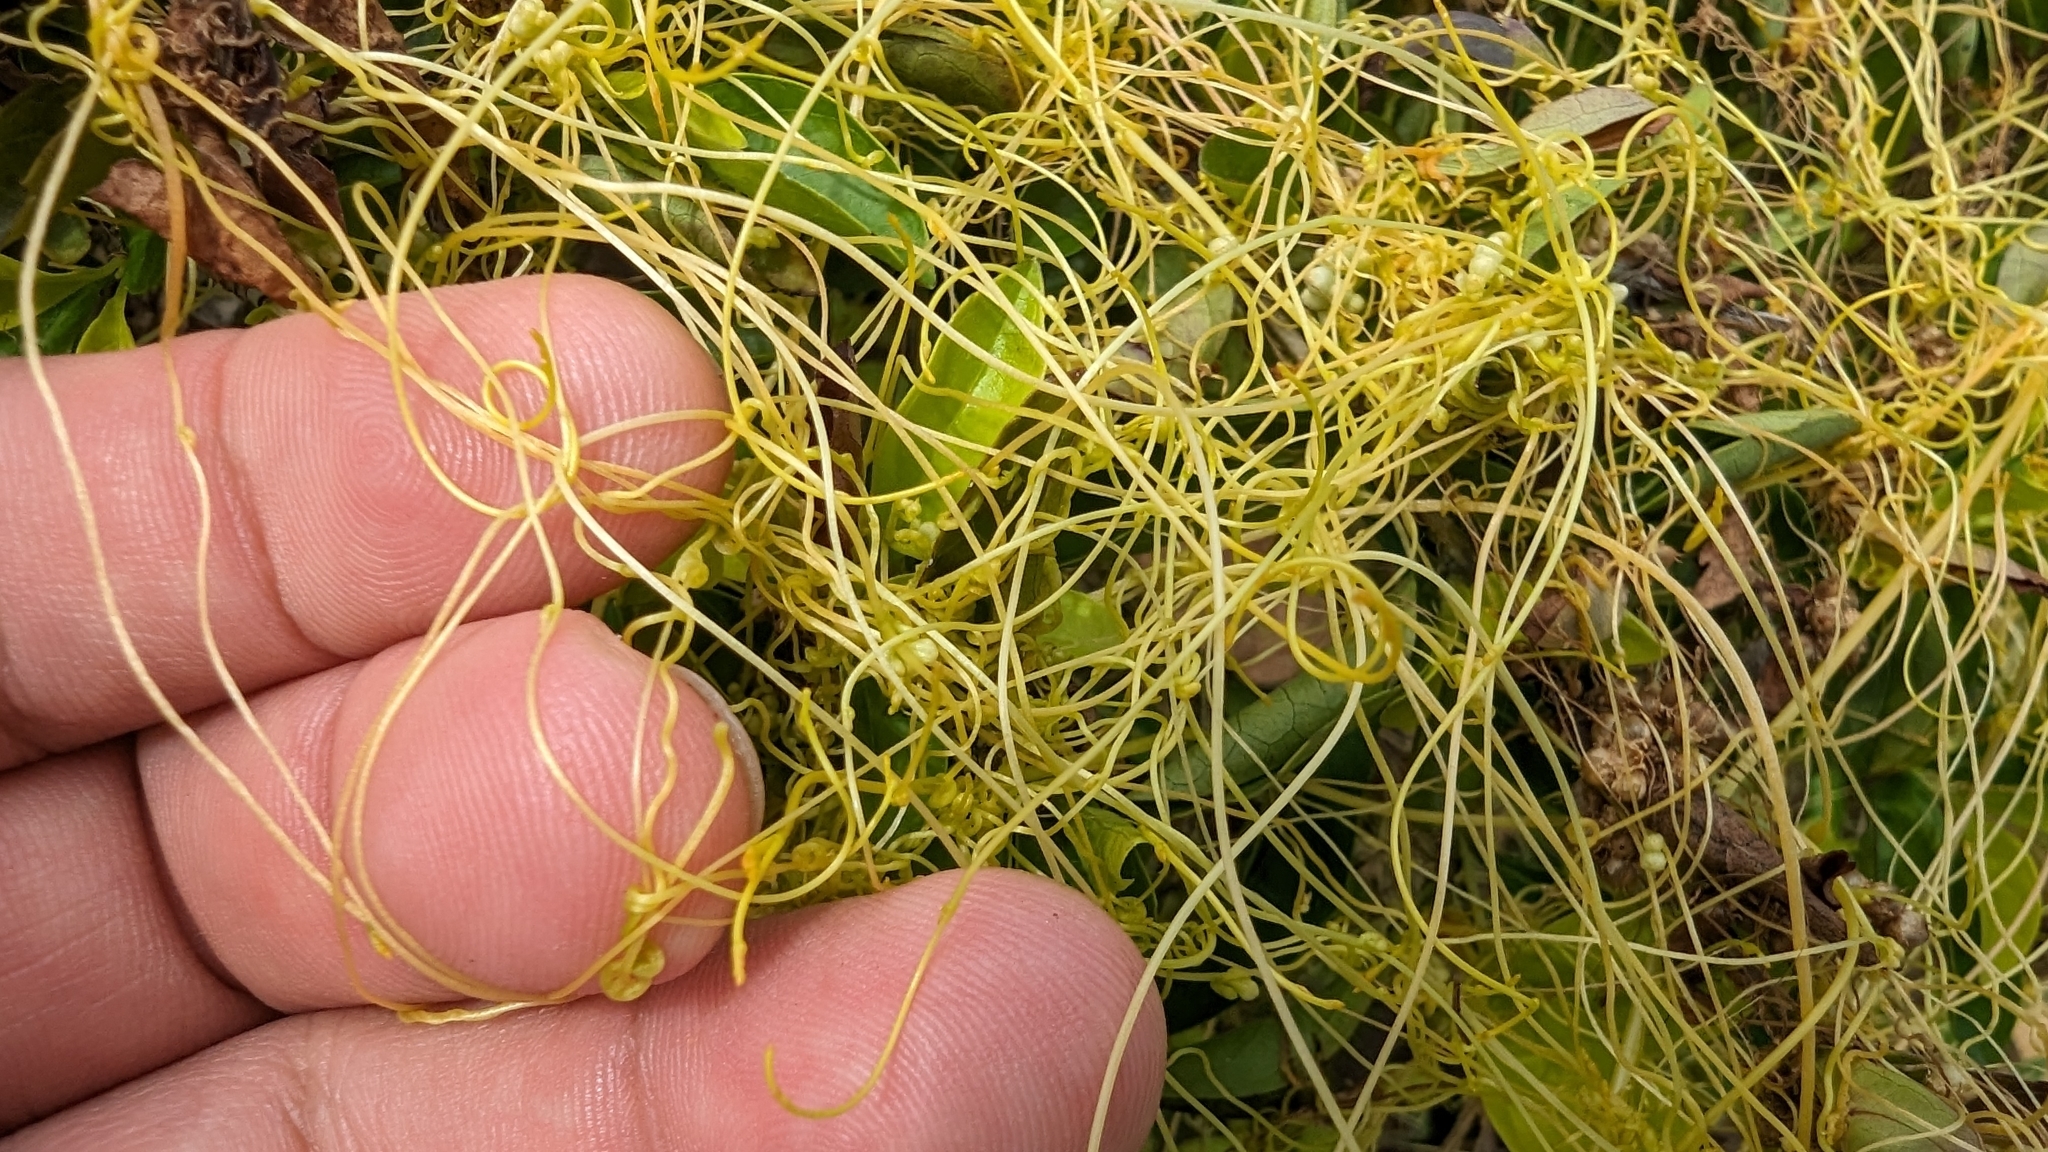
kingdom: Plantae
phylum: Tracheophyta
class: Magnoliopsida
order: Solanales
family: Convolvulaceae
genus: Cuscuta
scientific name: Cuscuta campestris
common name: Yellow dodder
